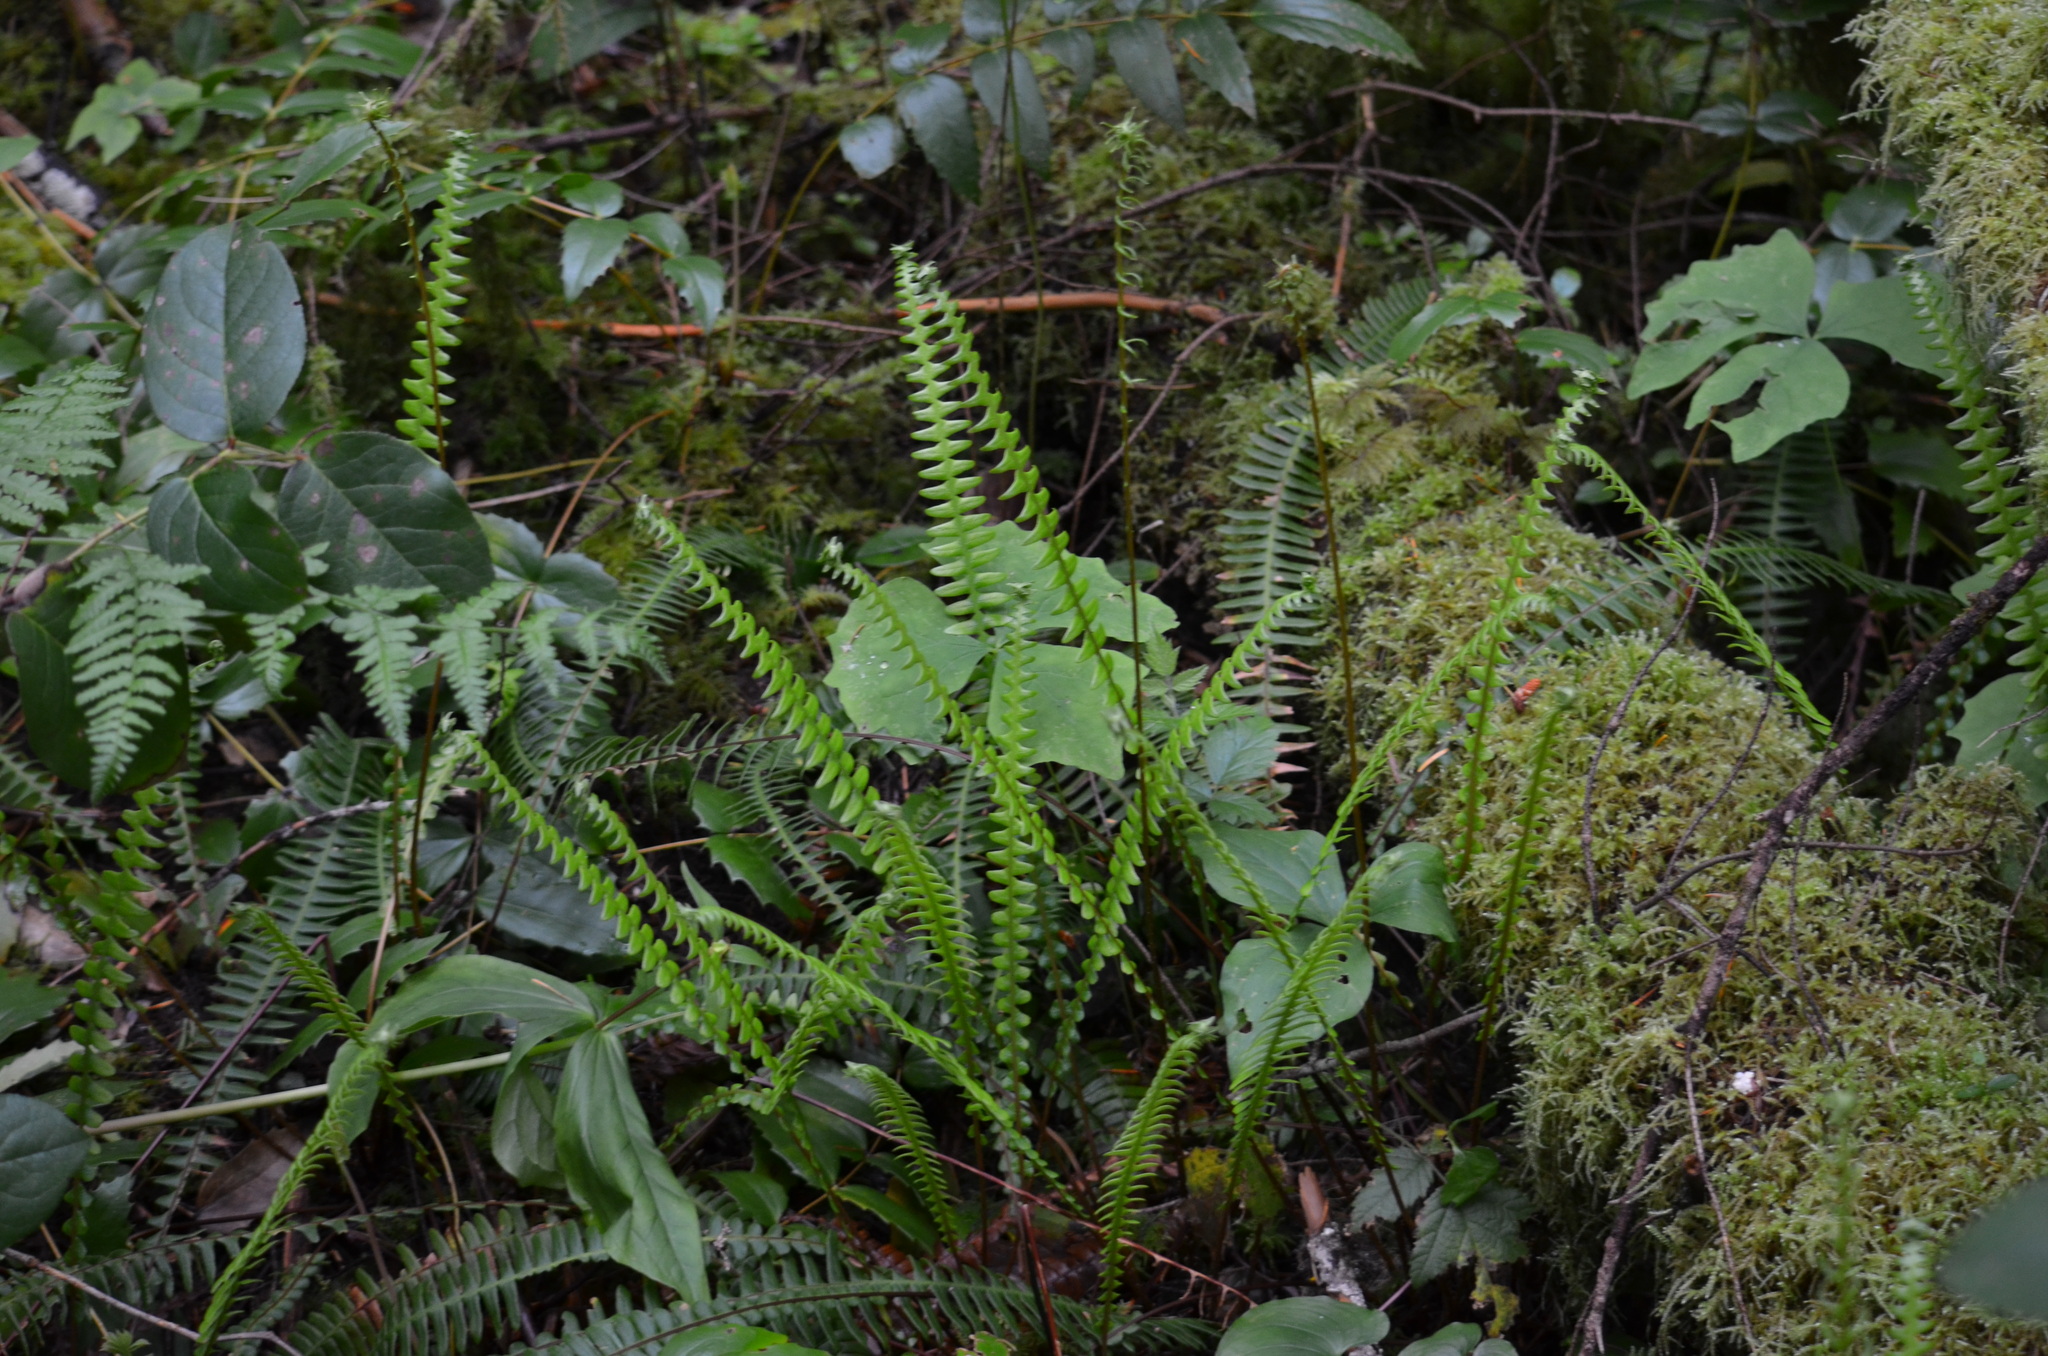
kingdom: Plantae
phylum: Tracheophyta
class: Polypodiopsida
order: Polypodiales
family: Blechnaceae
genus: Struthiopteris
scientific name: Struthiopteris spicant
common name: Deer fern
